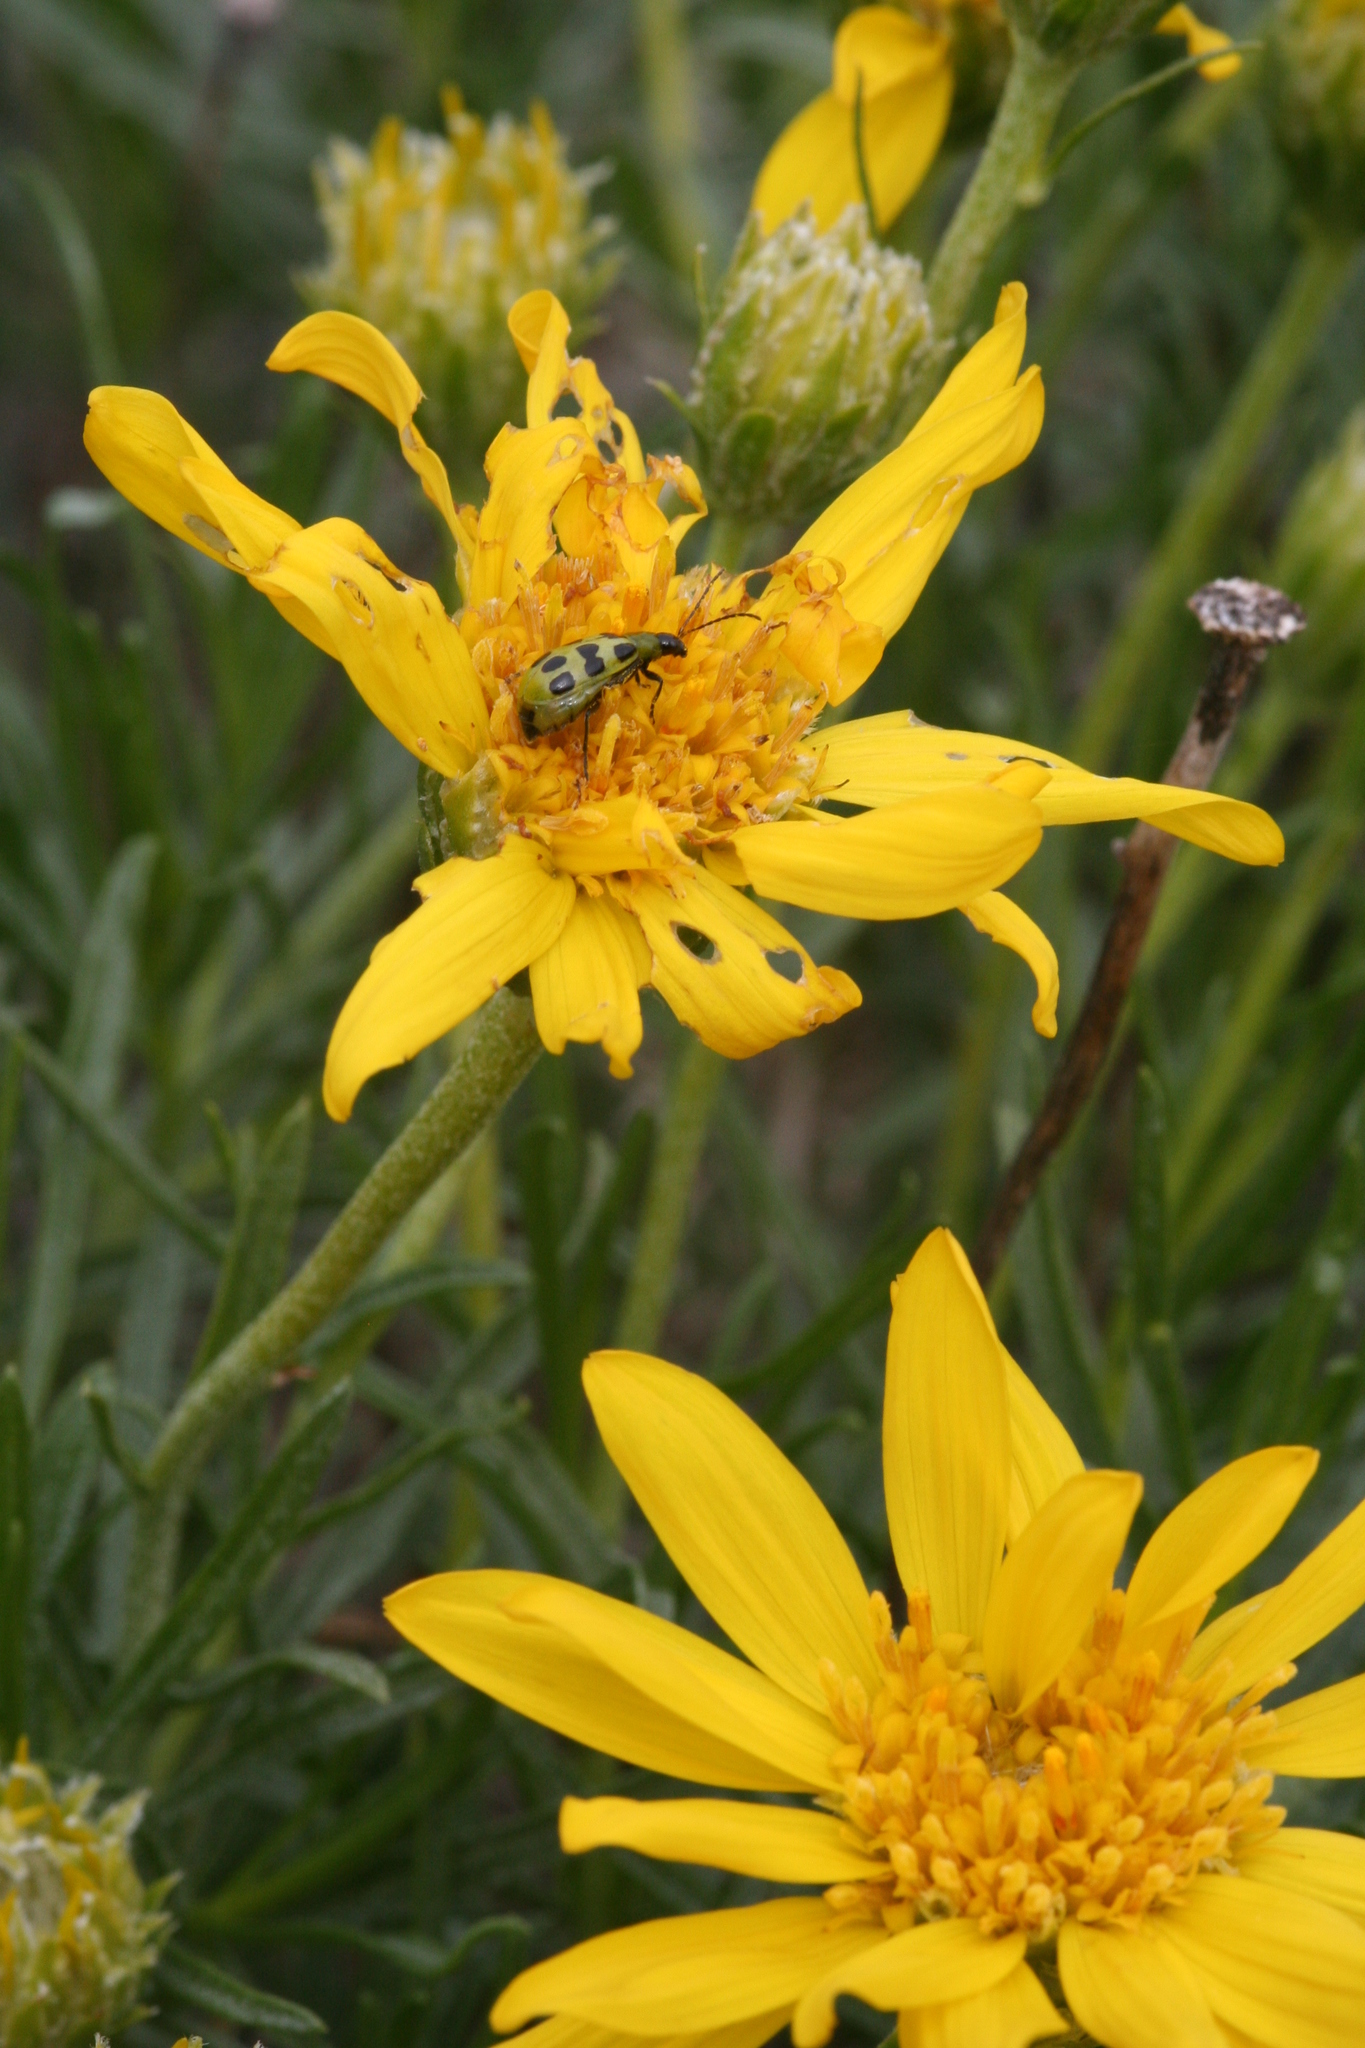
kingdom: Plantae
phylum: Tracheophyta
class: Magnoliopsida
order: Asterales
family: Asteraceae
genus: Ericameria
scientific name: Ericameria linearifolia
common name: Interior goldenbush
